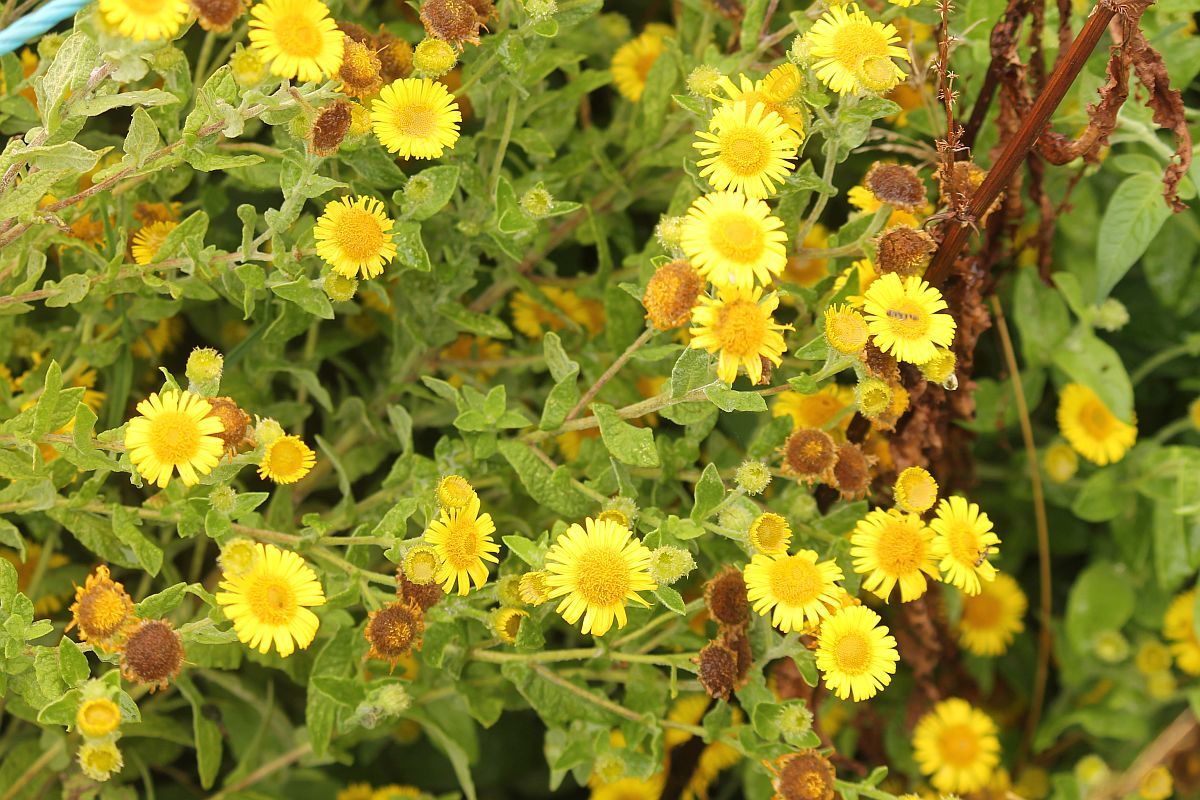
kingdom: Plantae
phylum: Tracheophyta
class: Magnoliopsida
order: Asterales
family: Asteraceae
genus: Pulicaria
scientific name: Pulicaria dysenterica
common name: Common fleabane
